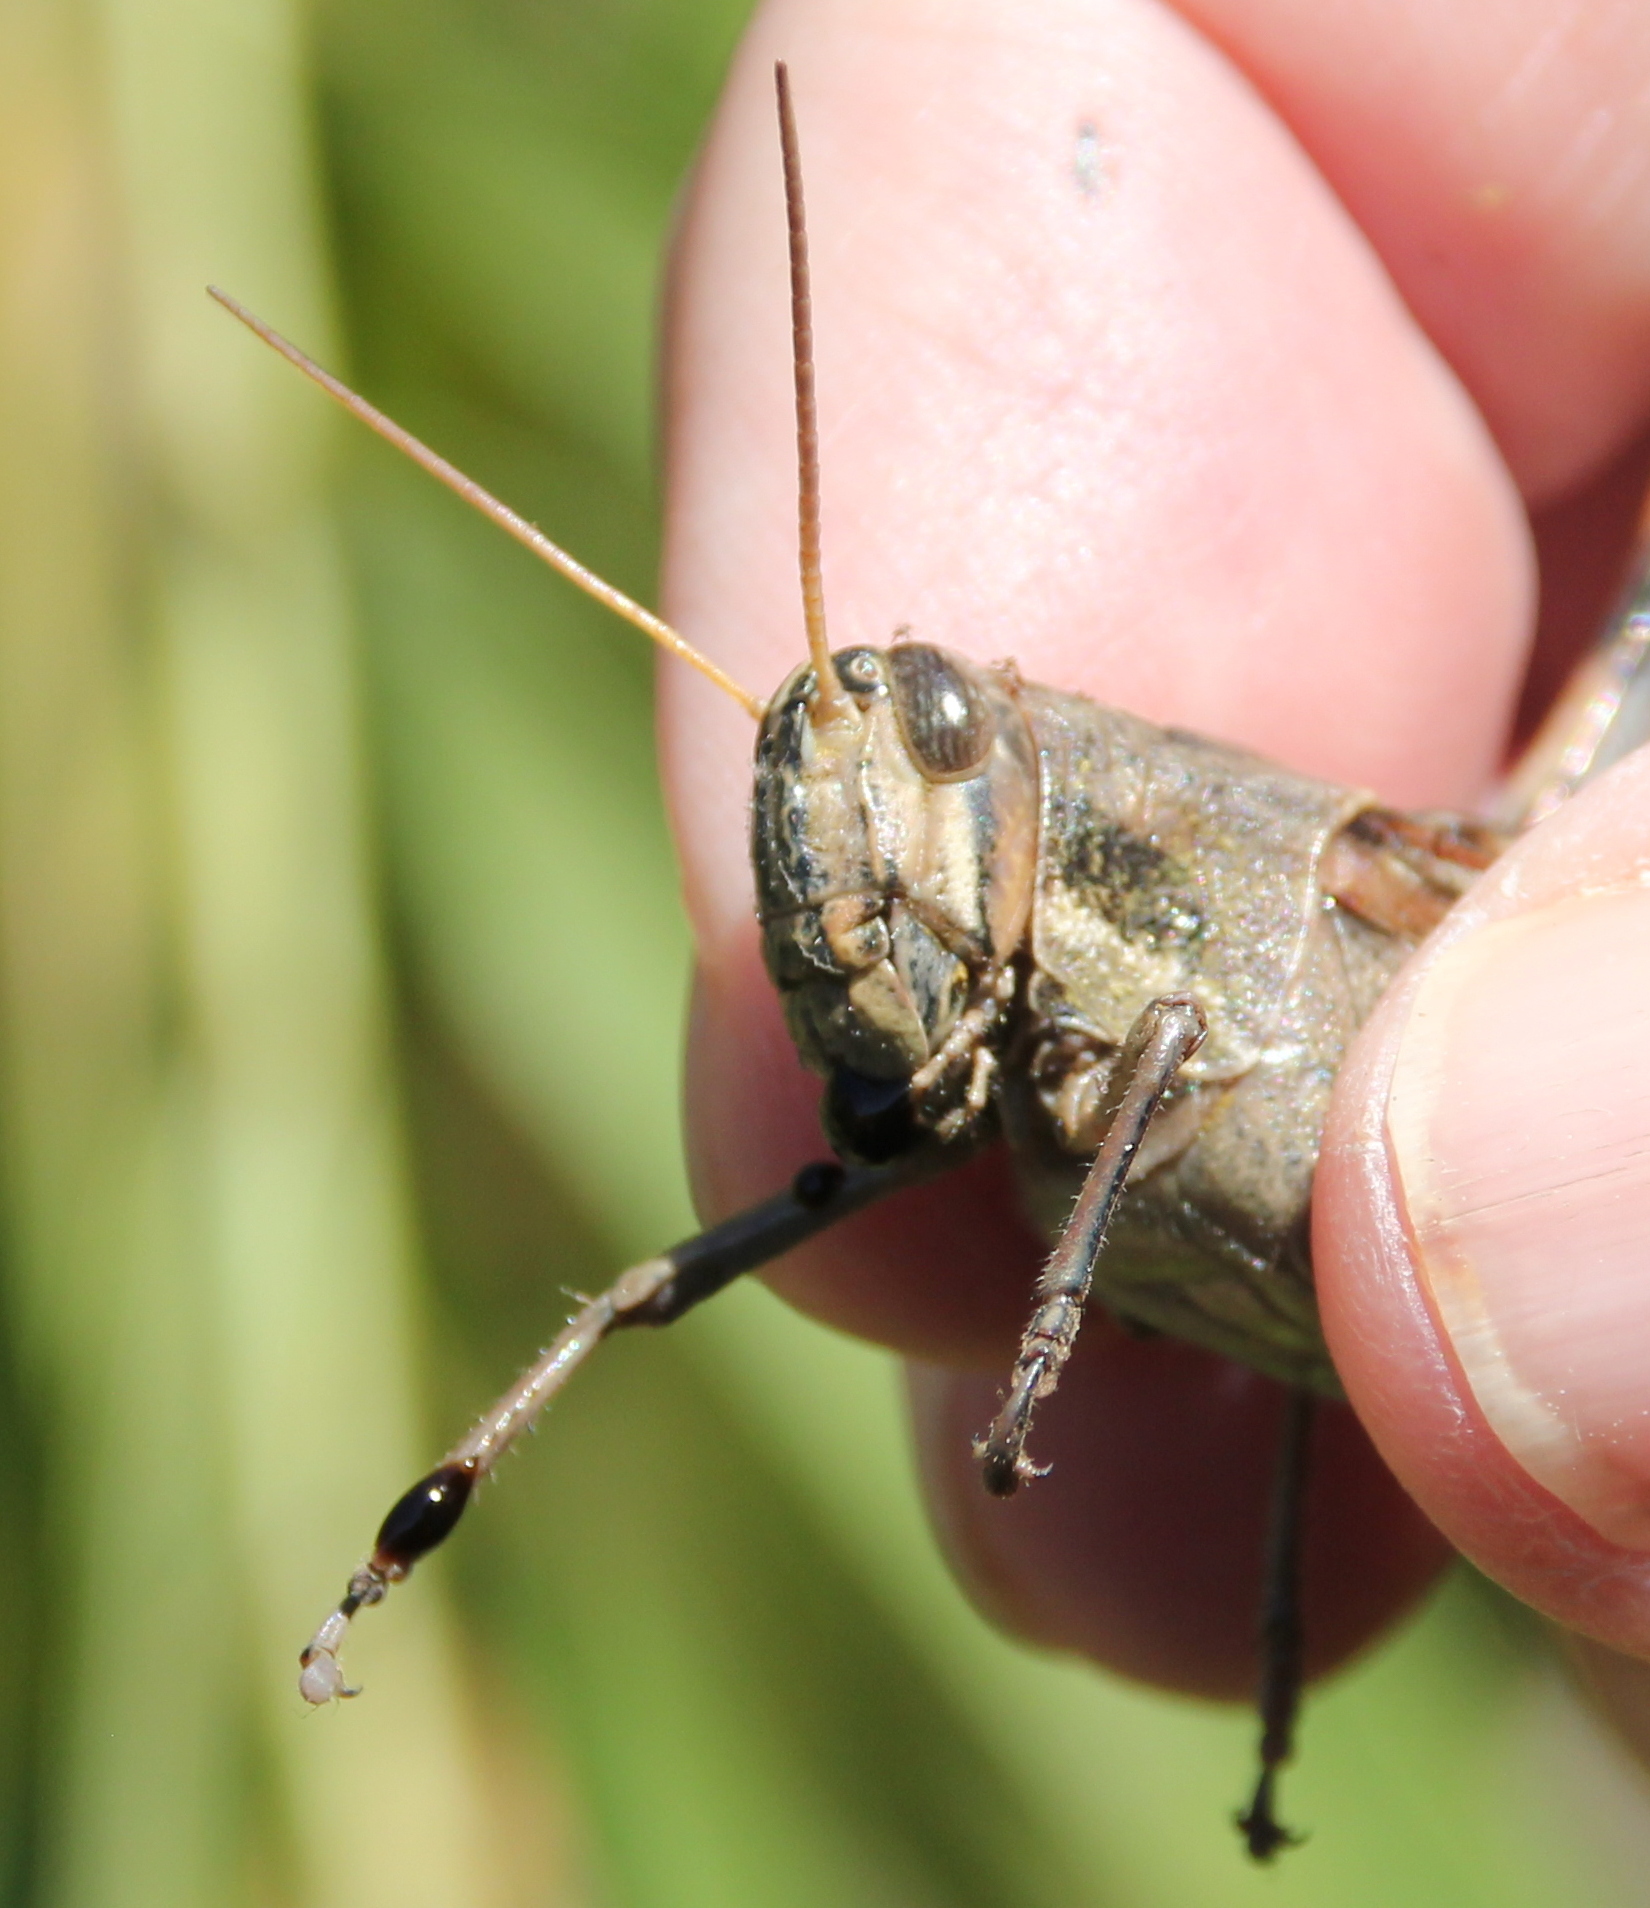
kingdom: Animalia
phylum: Arthropoda
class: Insecta
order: Orthoptera
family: Acrididae
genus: Schistocerca
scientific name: Schistocerca nitens
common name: Vagrant grasshopper
